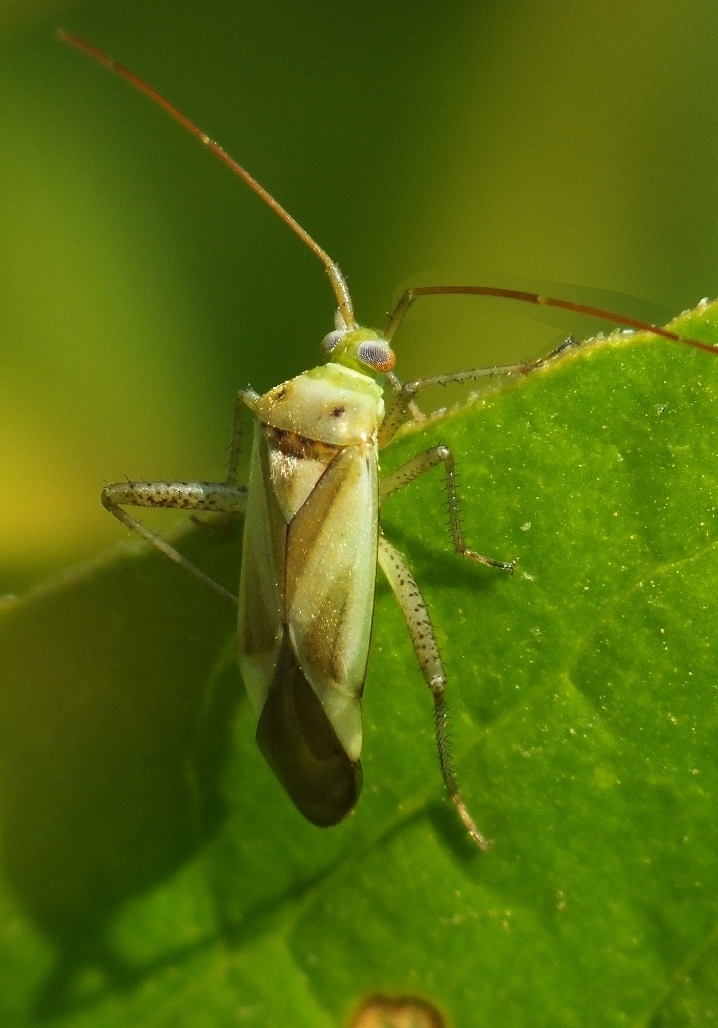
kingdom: Animalia
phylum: Arthropoda
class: Insecta
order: Hemiptera
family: Miridae
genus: Adelphocoris
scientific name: Adelphocoris lineolatus
